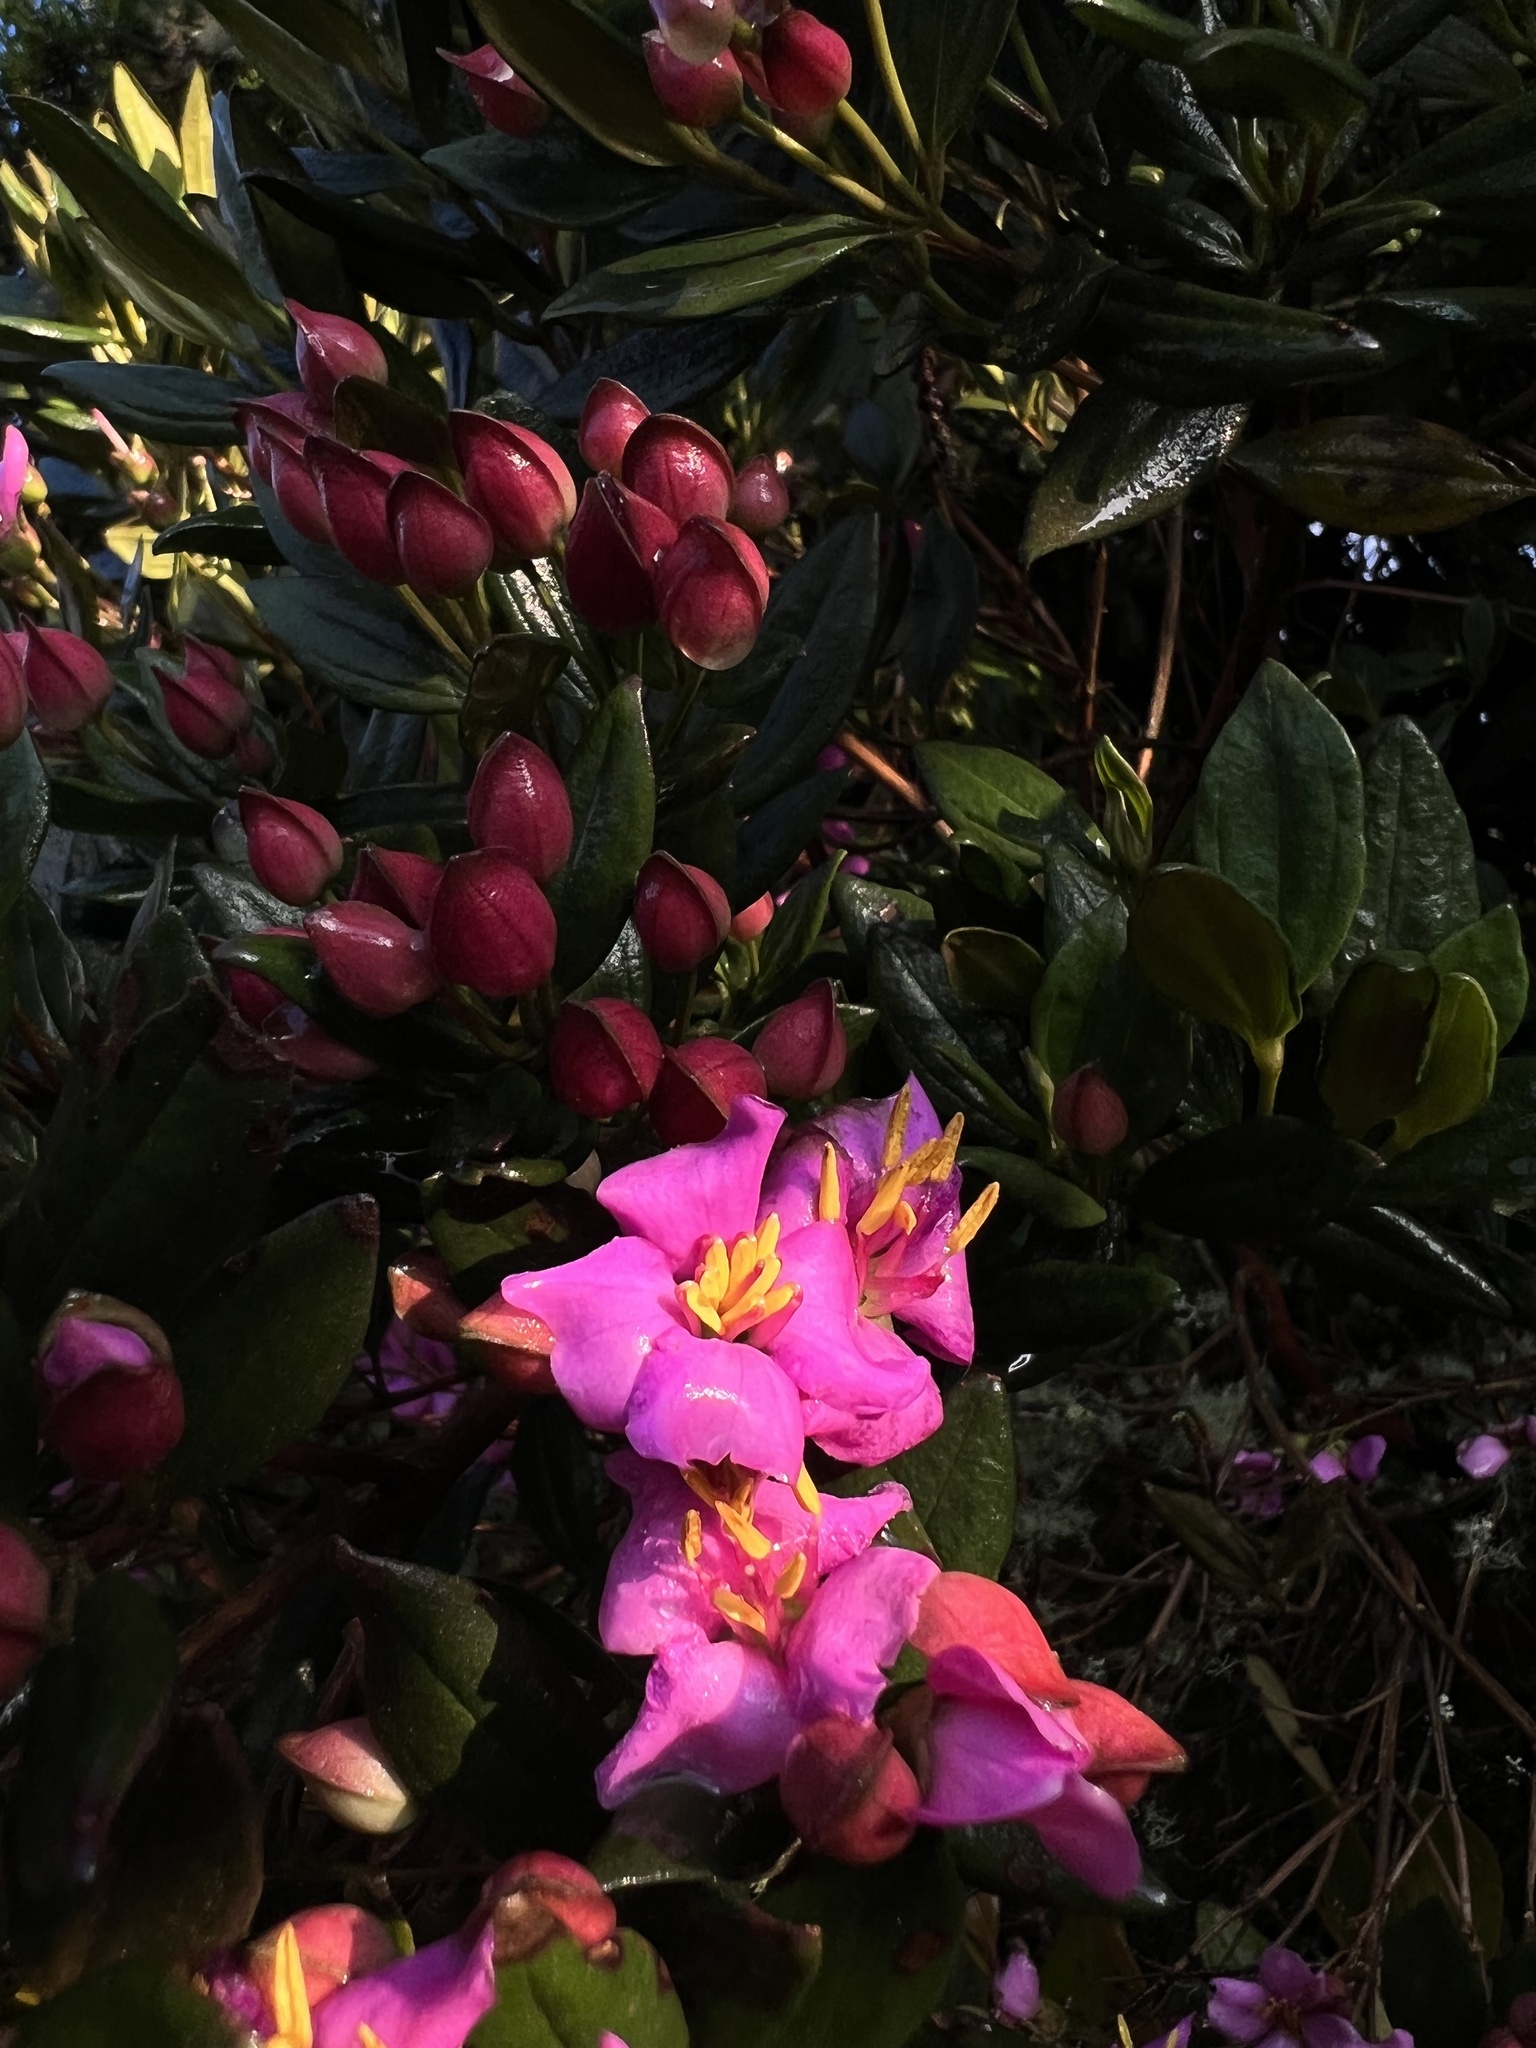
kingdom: Plantae
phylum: Tracheophyta
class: Magnoliopsida
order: Myrtales
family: Melastomataceae
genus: Bucquetia
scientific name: Bucquetia glutinosa
